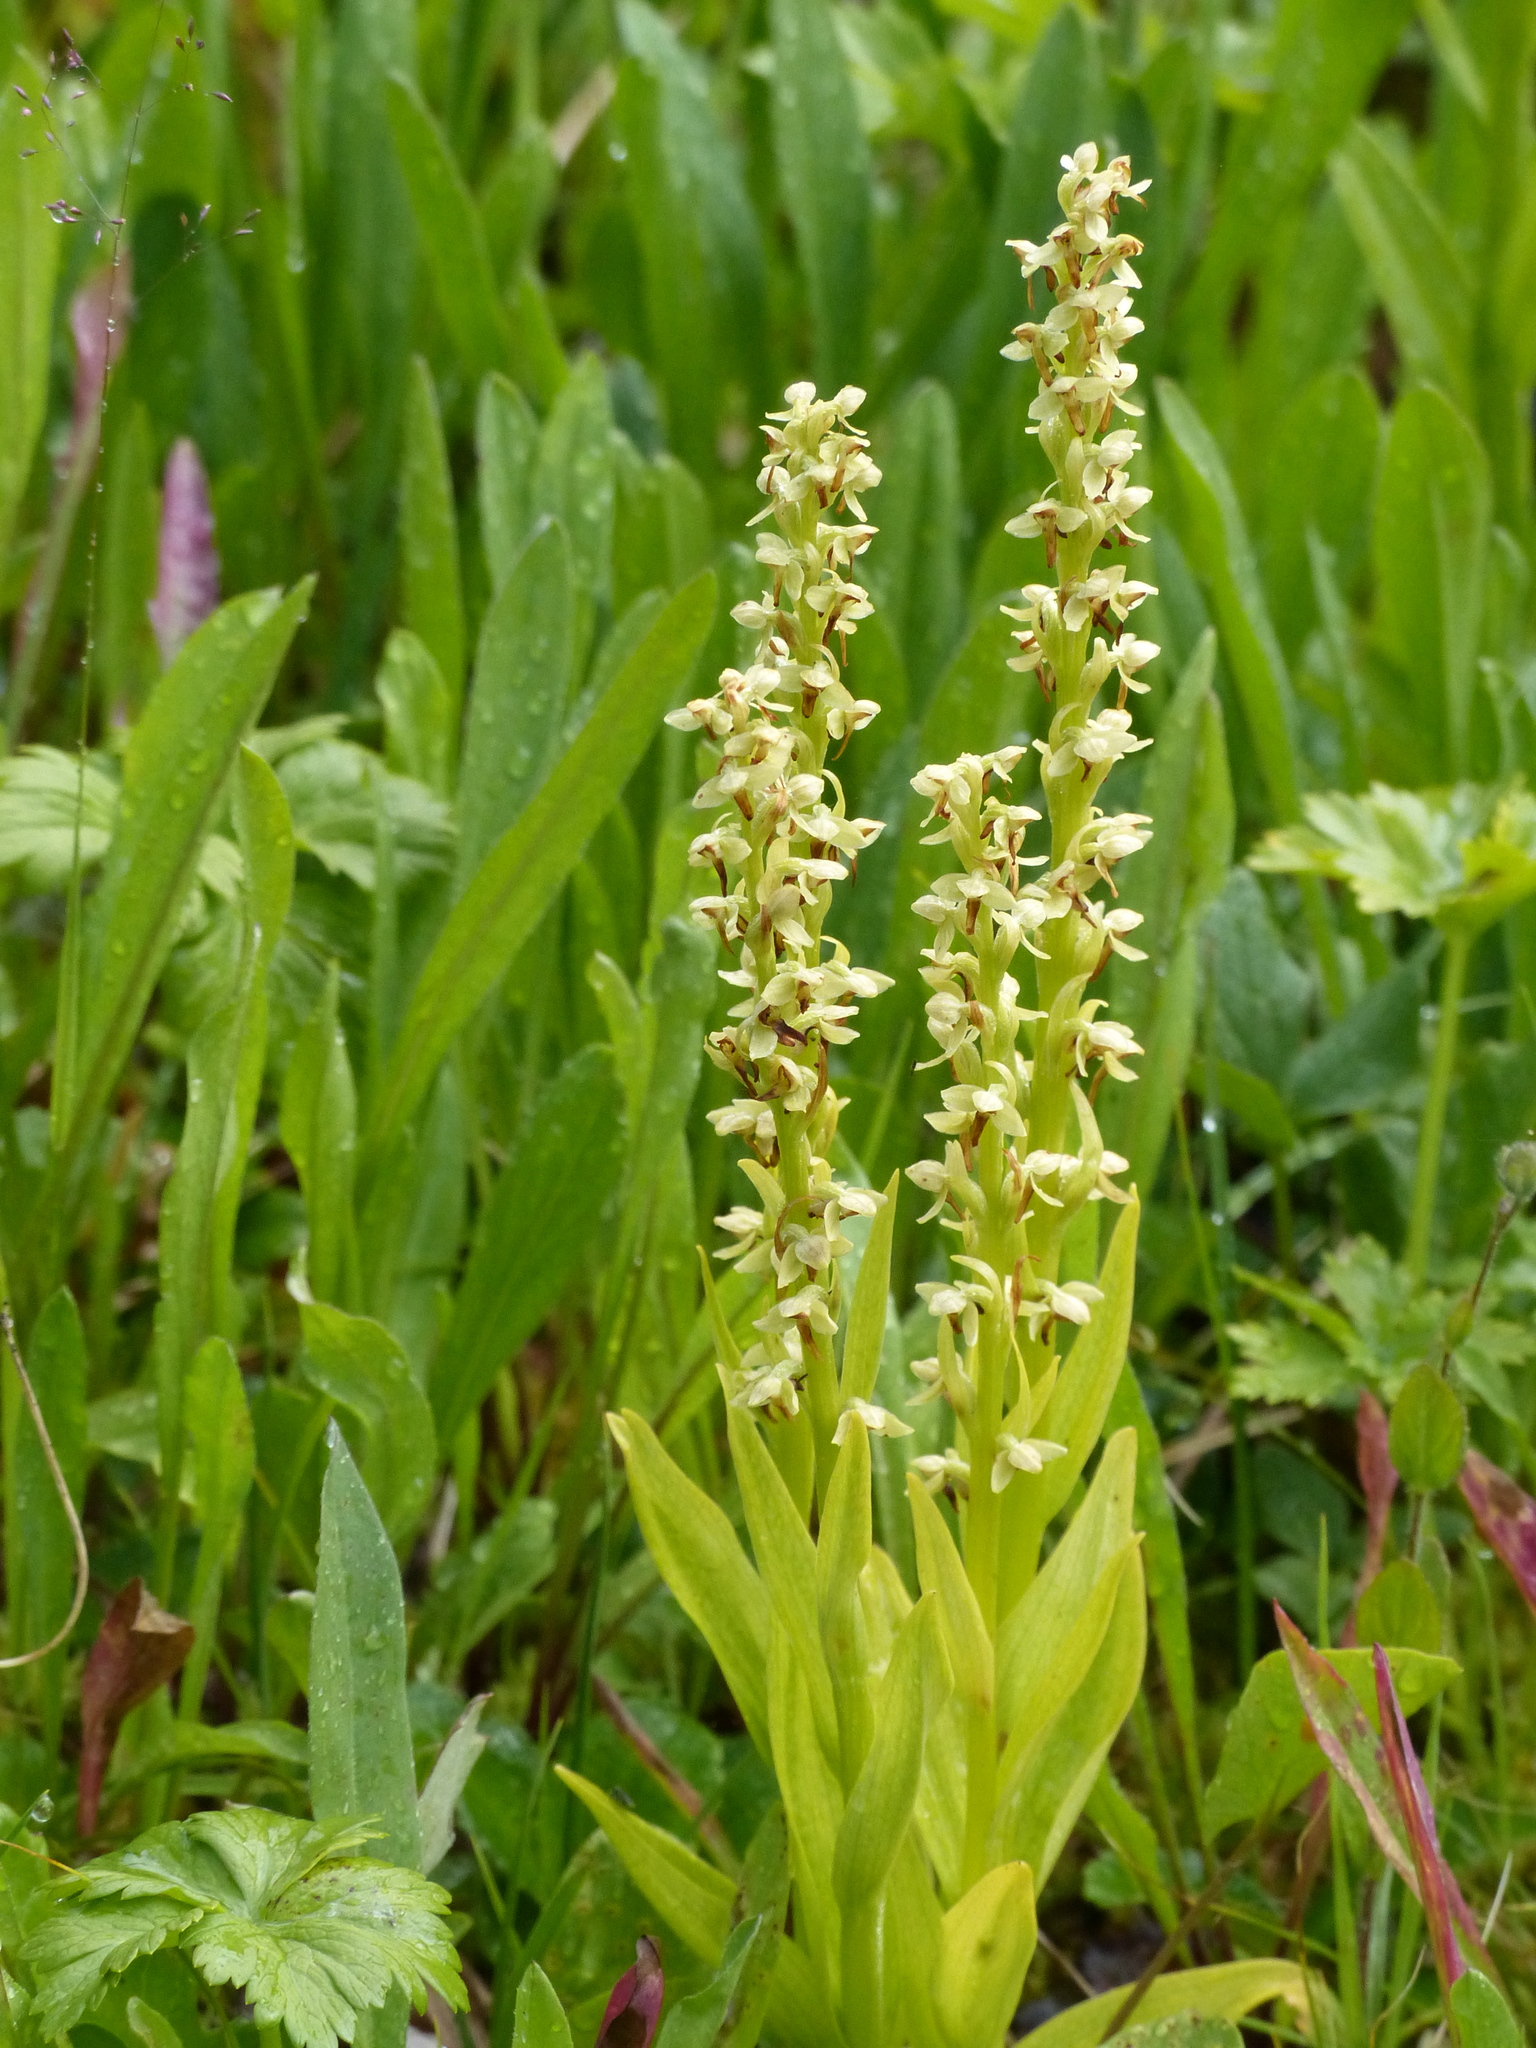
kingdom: Plantae
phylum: Tracheophyta
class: Liliopsida
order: Asparagales
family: Orchidaceae
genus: Platanthera
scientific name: Platanthera stricta
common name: Slender bog orchid
